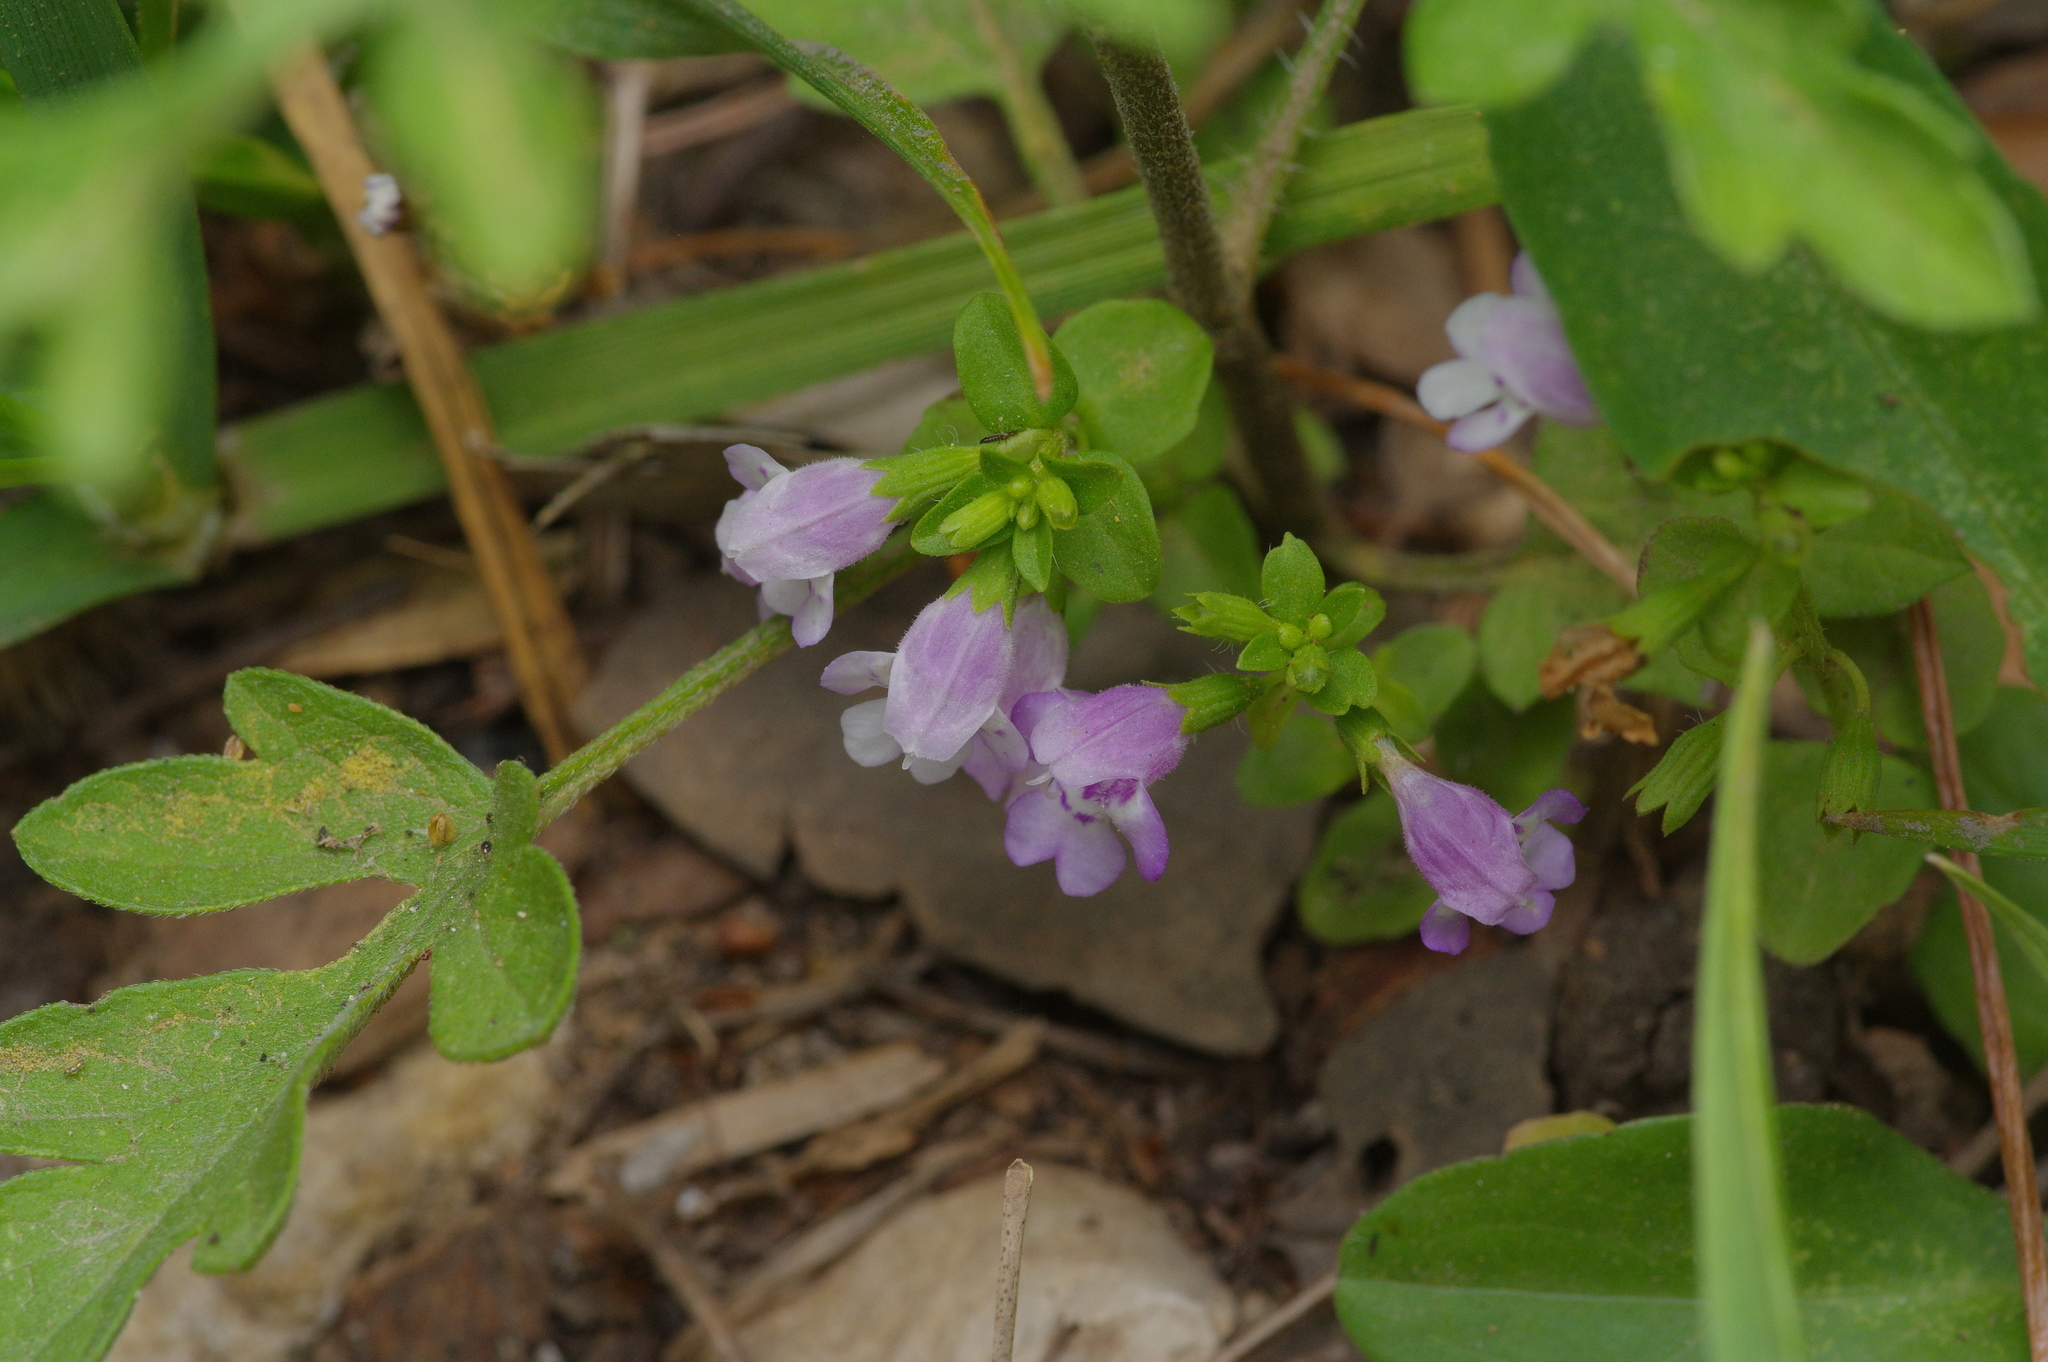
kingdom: Plantae
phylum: Tracheophyta
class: Magnoliopsida
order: Lamiales
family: Lamiaceae
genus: Clinopodium
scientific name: Clinopodium brownei
